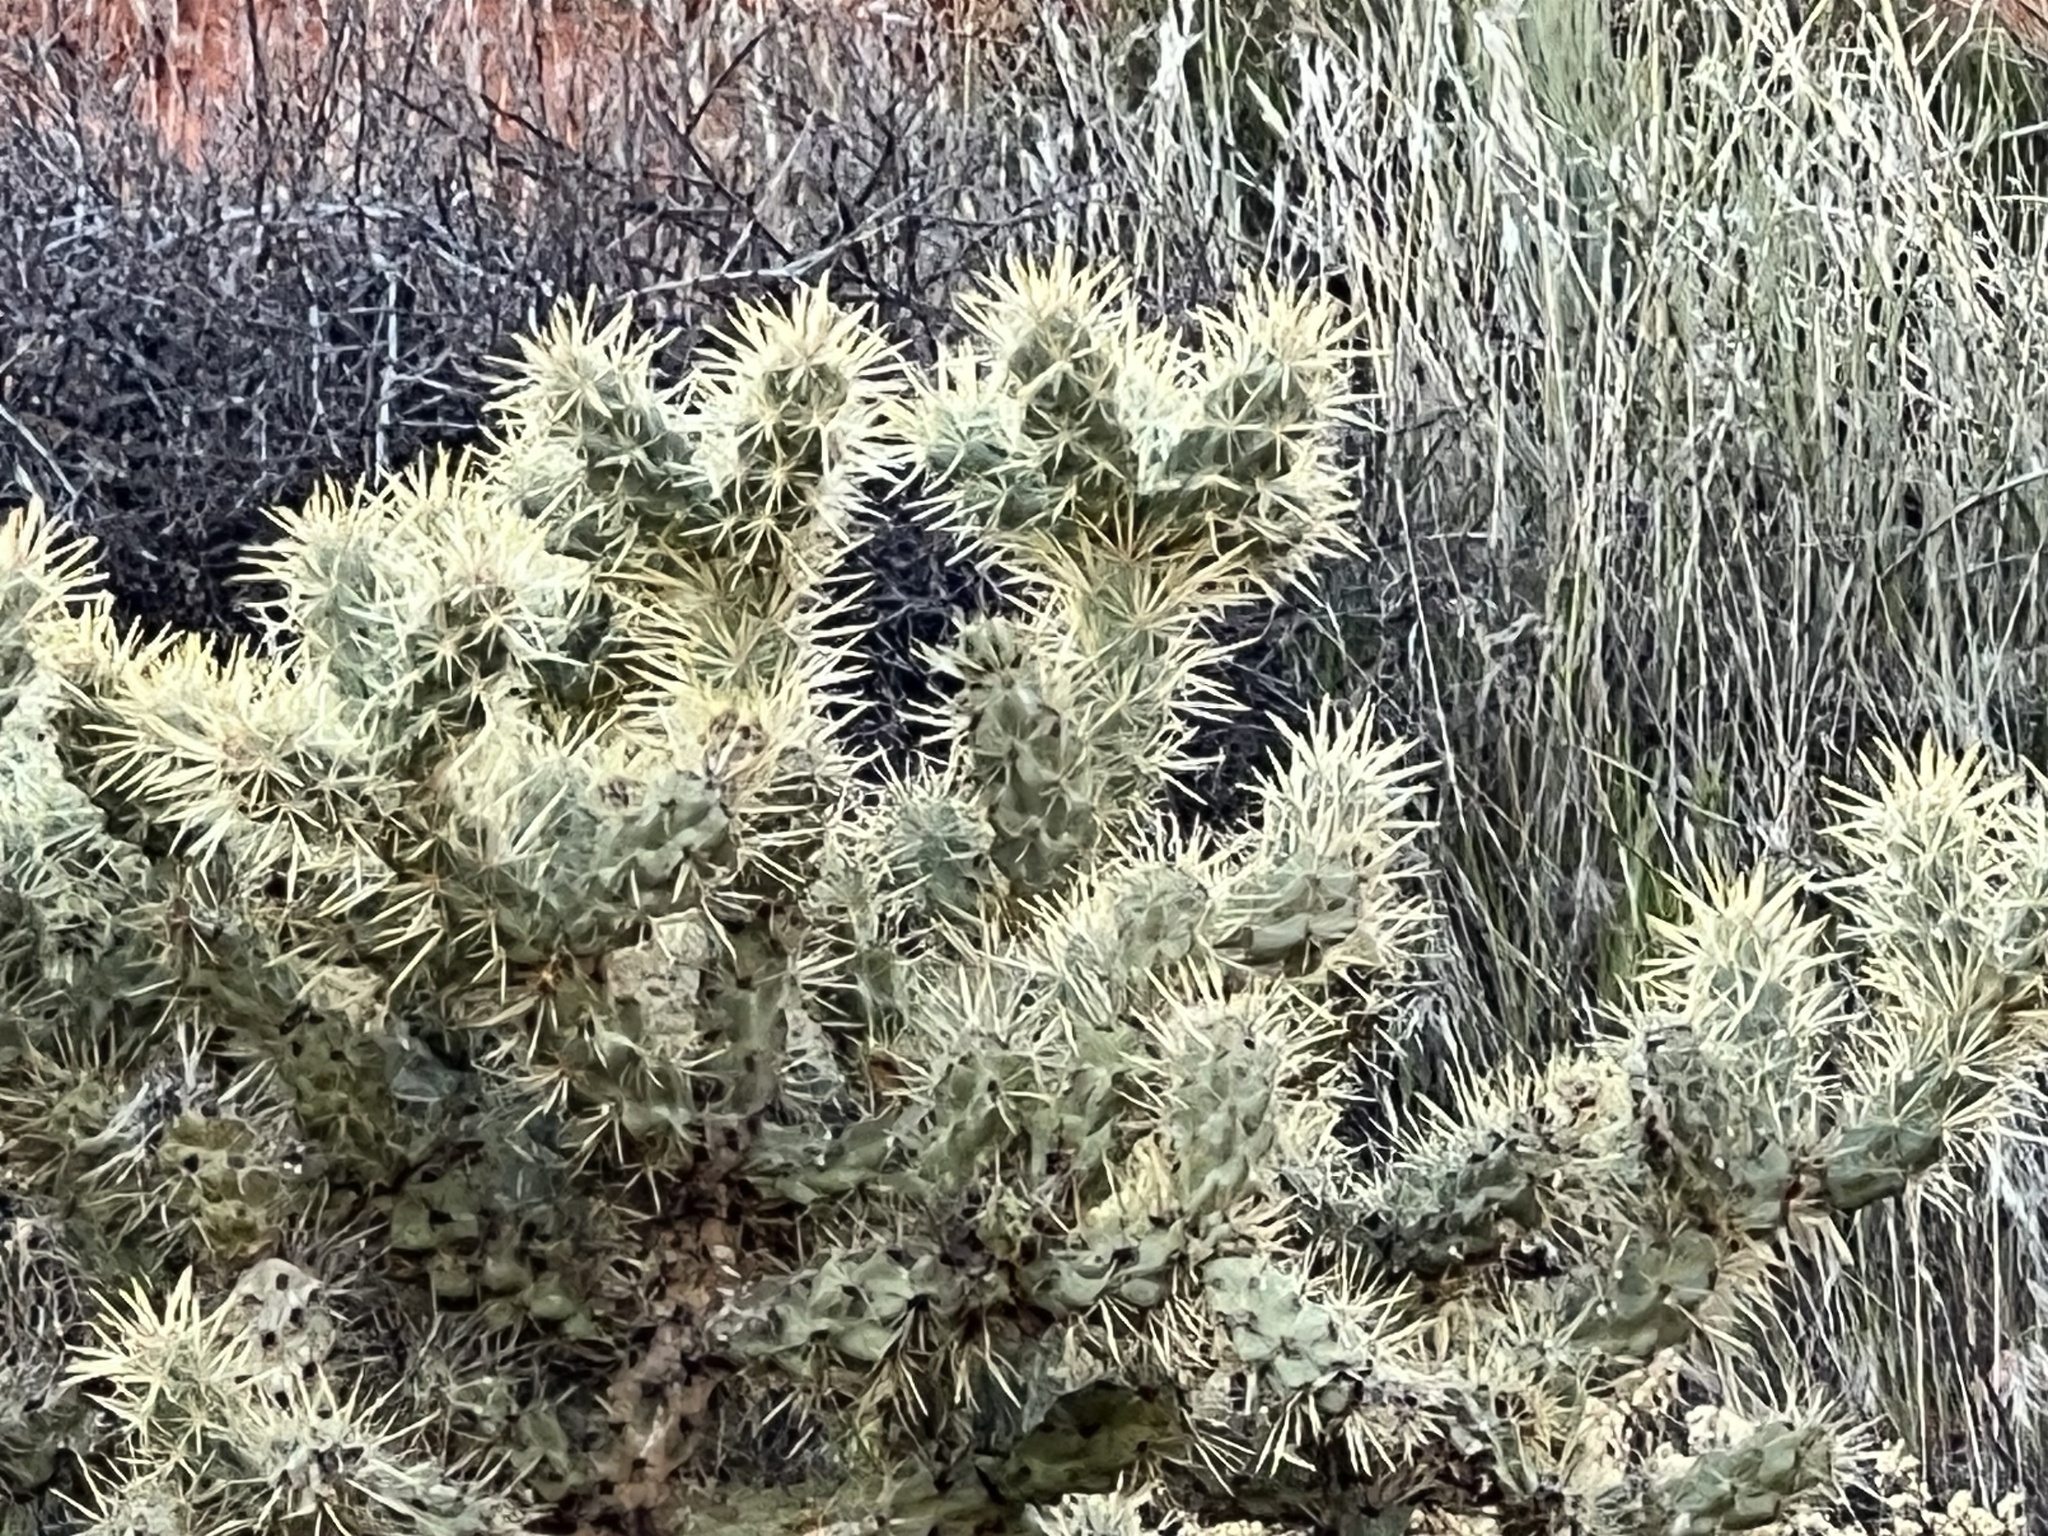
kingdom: Plantae
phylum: Tracheophyta
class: Magnoliopsida
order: Caryophyllales
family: Cactaceae
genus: Cylindropuntia
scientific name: Cylindropuntia echinocarpa
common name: Ground cholla
